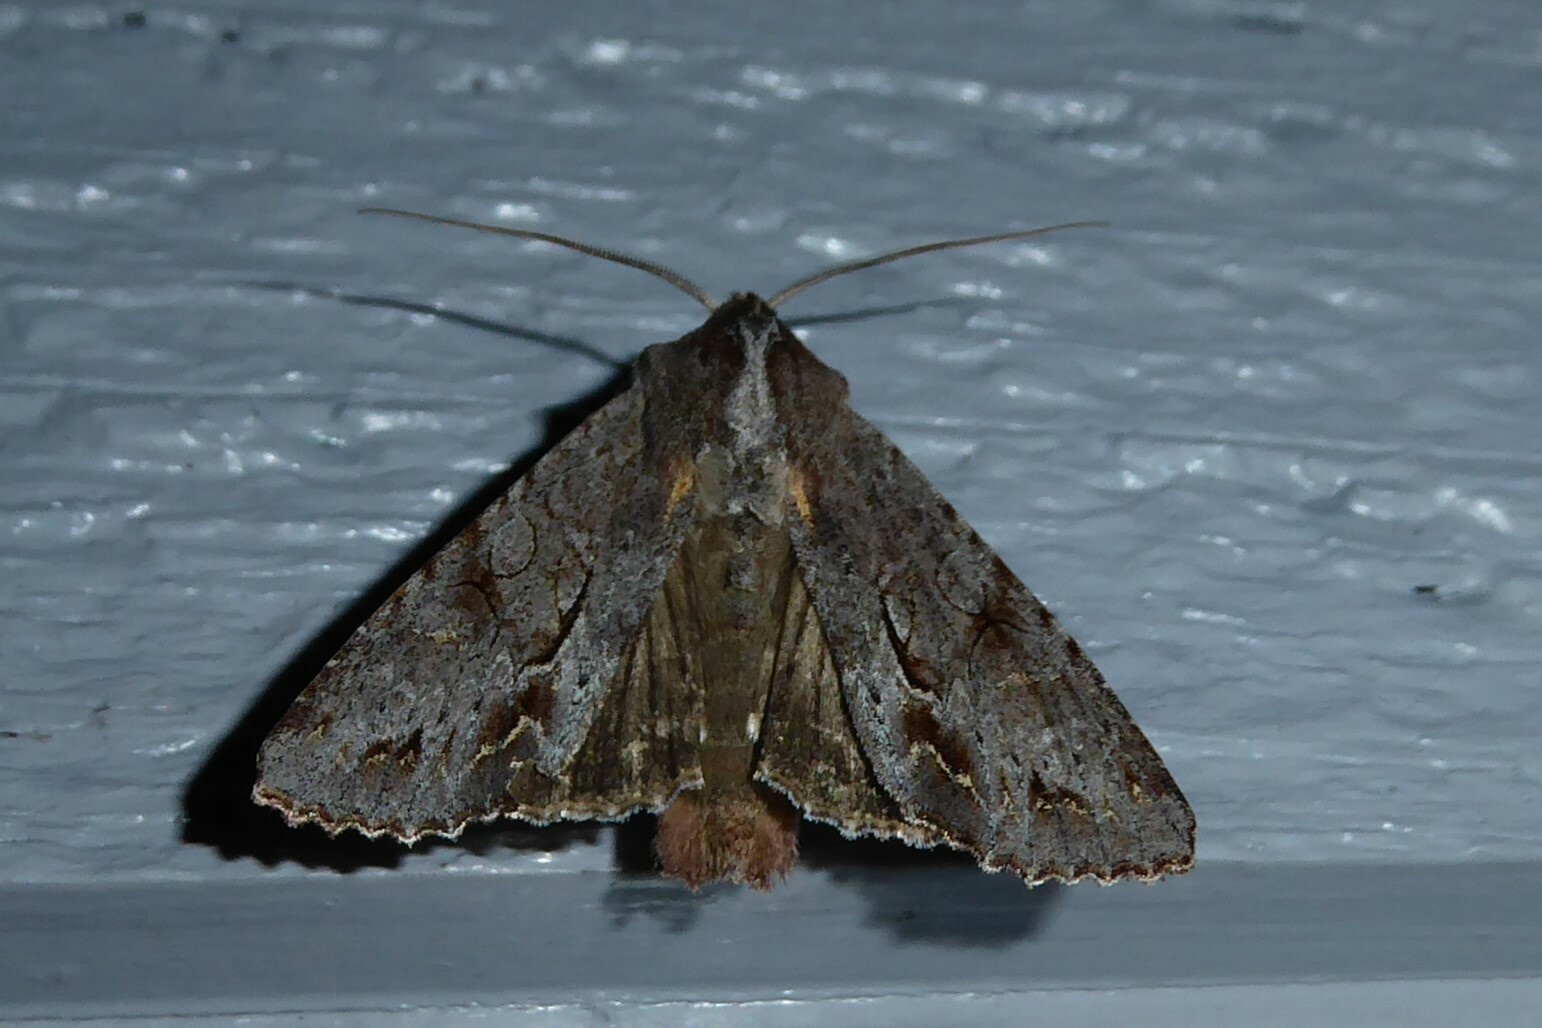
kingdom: Animalia
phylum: Arthropoda
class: Insecta
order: Lepidoptera
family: Noctuidae
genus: Ichneutica
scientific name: Ichneutica
